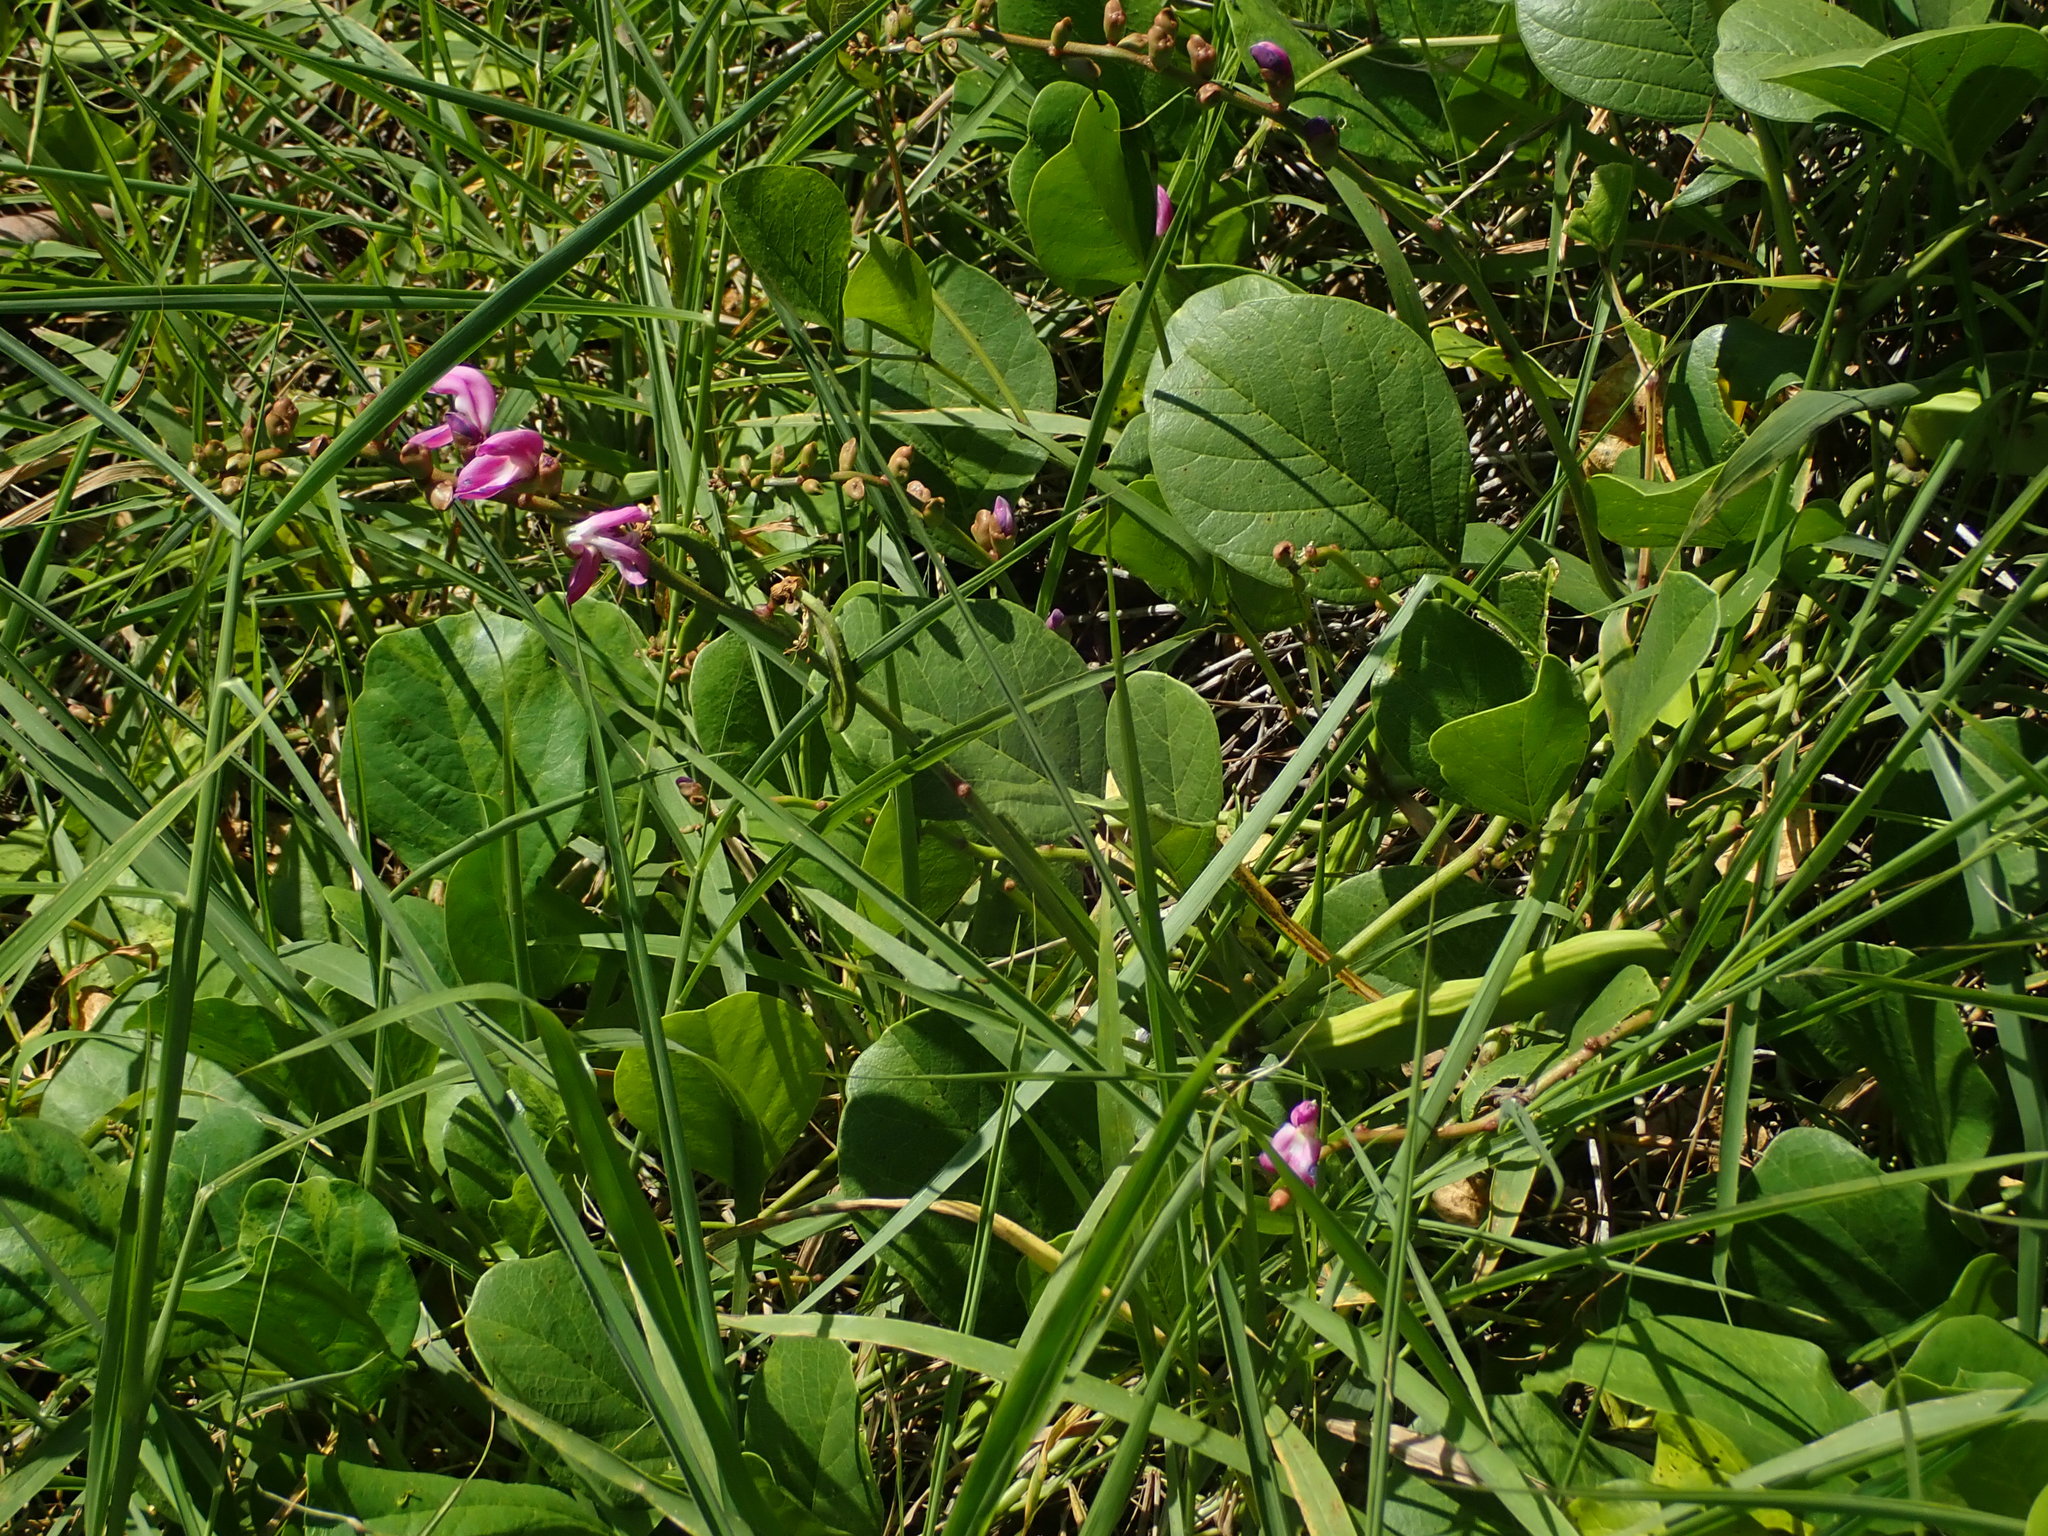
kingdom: Plantae
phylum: Tracheophyta
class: Magnoliopsida
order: Fabales
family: Fabaceae
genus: Canavalia
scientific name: Canavalia rosea
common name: Beach-bean
